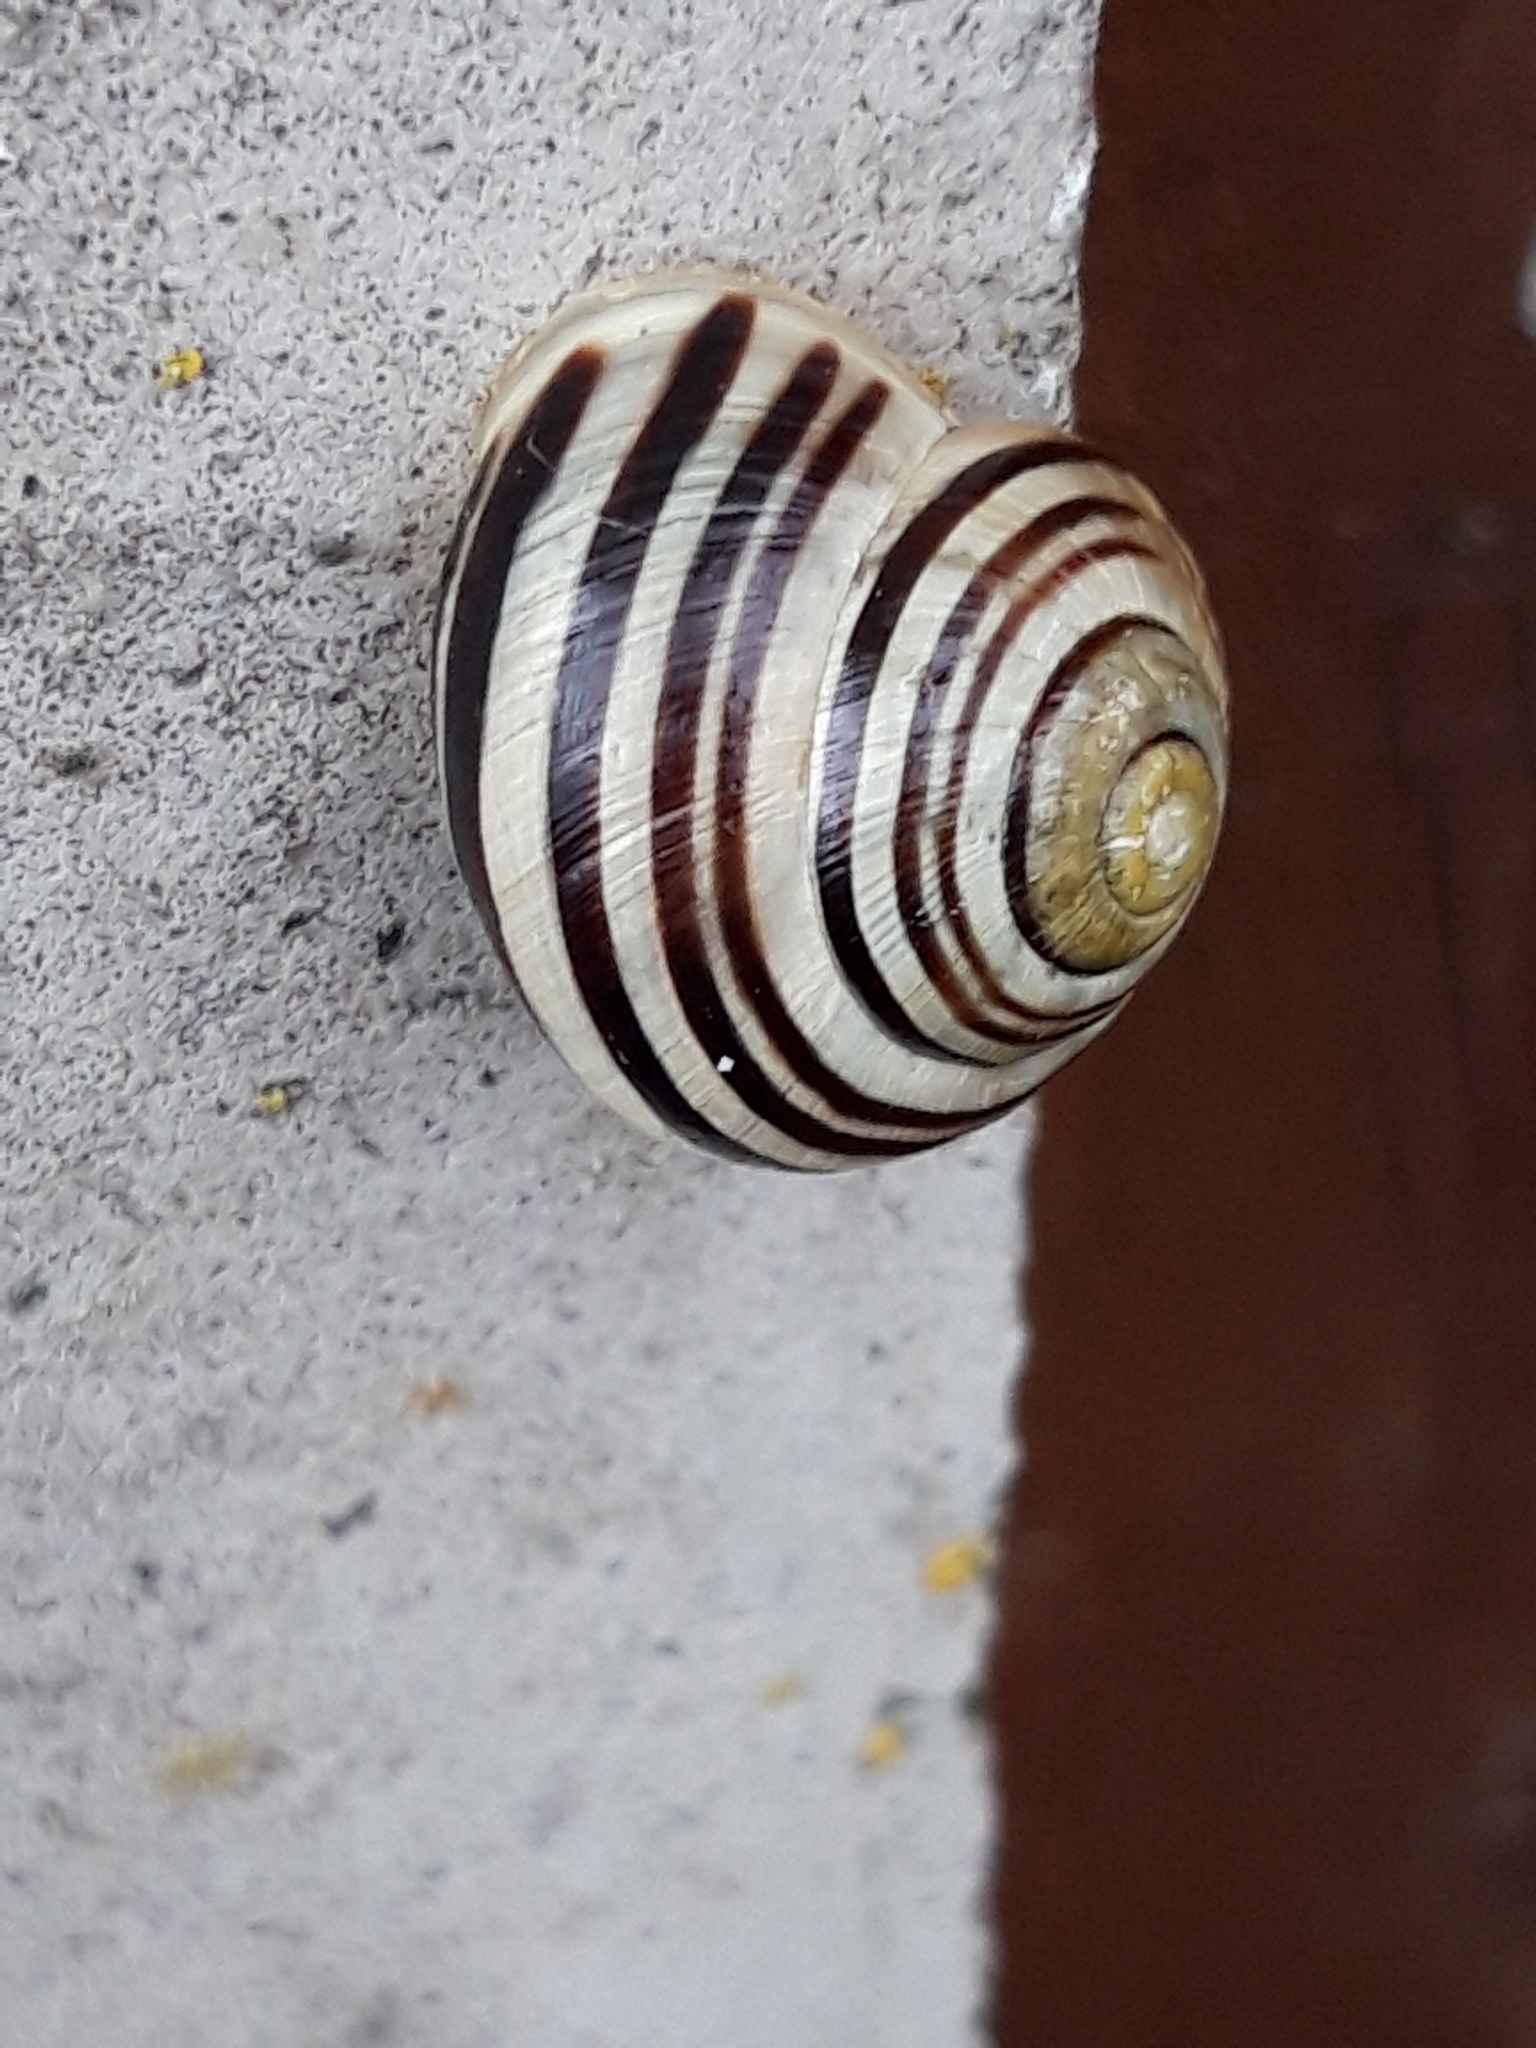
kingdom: Animalia
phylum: Mollusca
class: Gastropoda
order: Stylommatophora
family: Helicidae
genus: Cepaea
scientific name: Cepaea hortensis
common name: White-lip gardensnail
